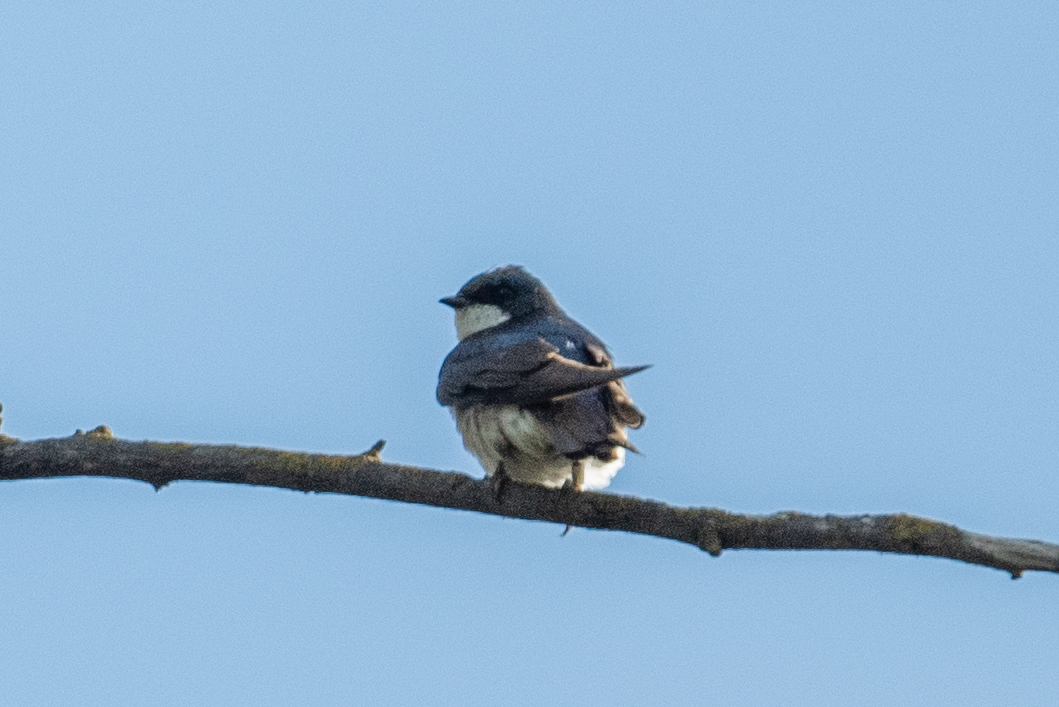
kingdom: Animalia
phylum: Chordata
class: Aves
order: Passeriformes
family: Hirundinidae
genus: Tachycineta
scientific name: Tachycineta bicolor
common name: Tree swallow
